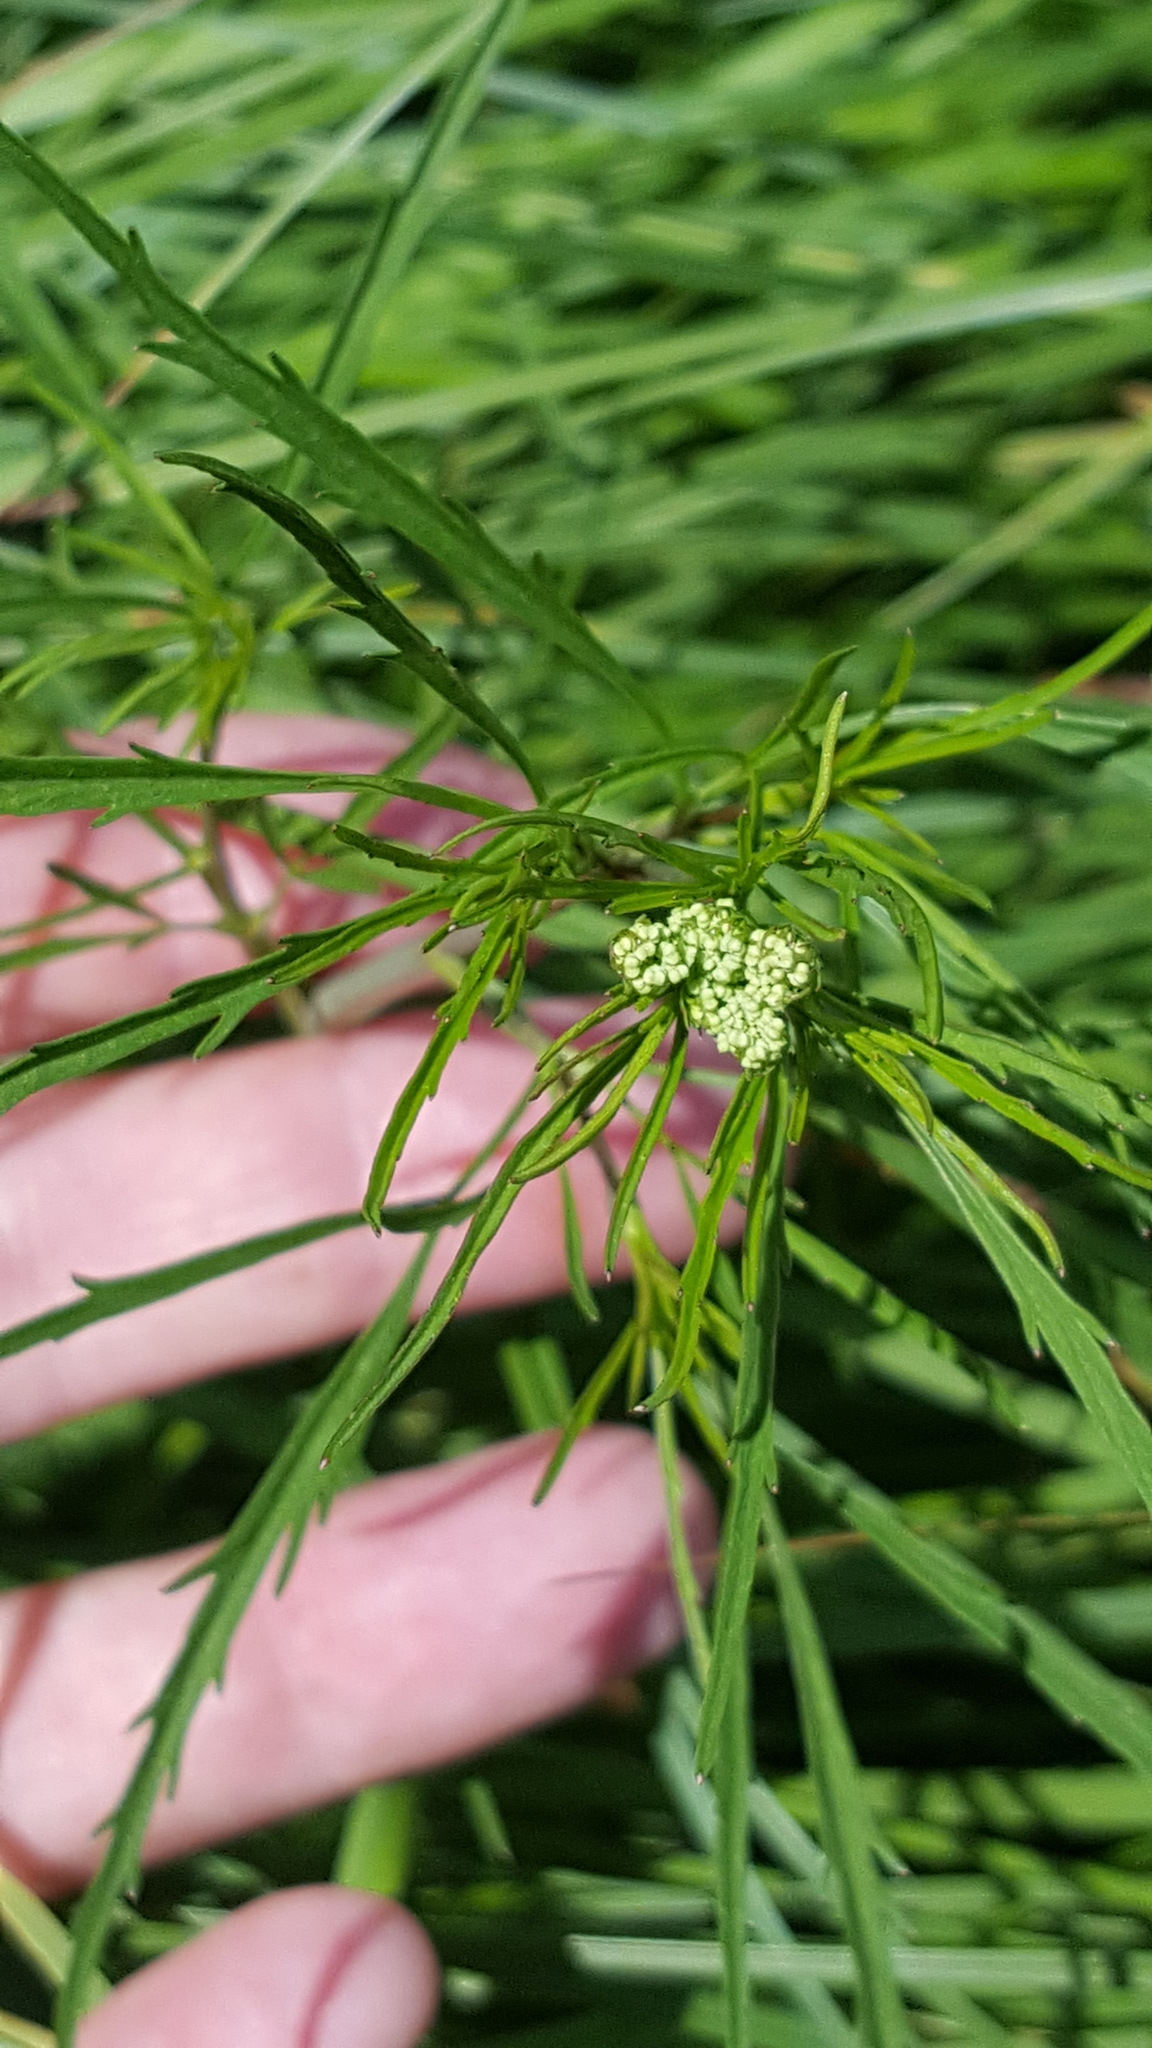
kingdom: Plantae
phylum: Tracheophyta
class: Magnoliopsida
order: Apiales
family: Apiaceae
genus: Cicuta
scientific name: Cicuta bulbifera
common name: Bulb-bearing water-hemlock
